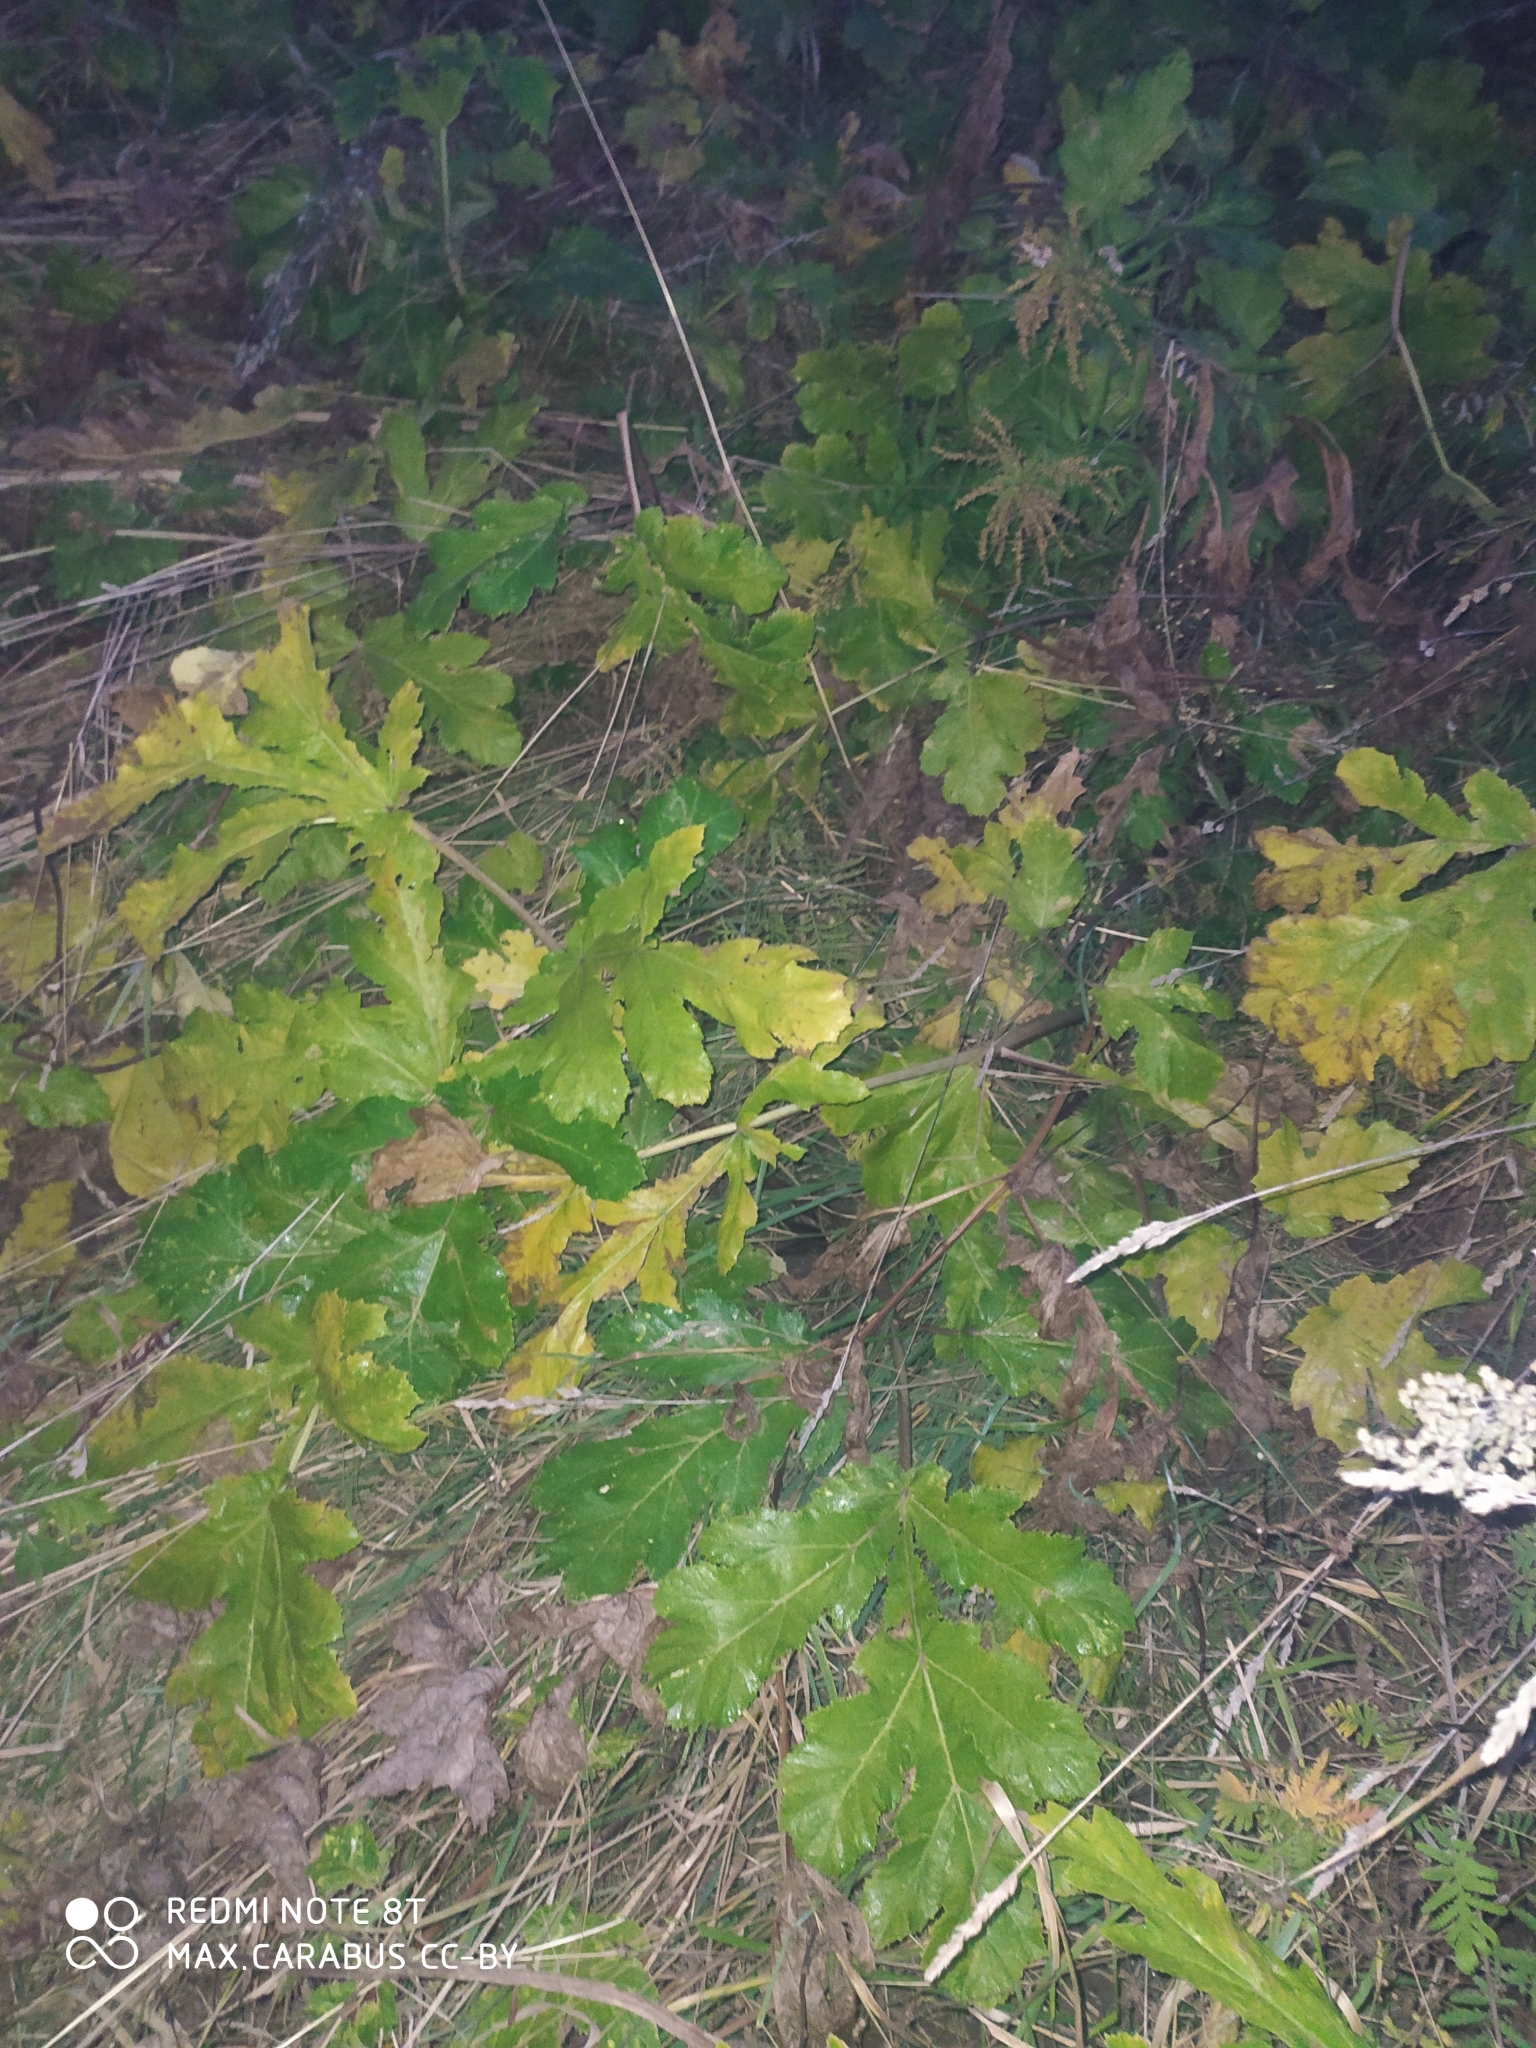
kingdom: Plantae
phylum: Tracheophyta
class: Magnoliopsida
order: Apiales
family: Apiaceae
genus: Heracleum
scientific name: Heracleum sosnowskyi
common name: Sosnowsky's hogweed
